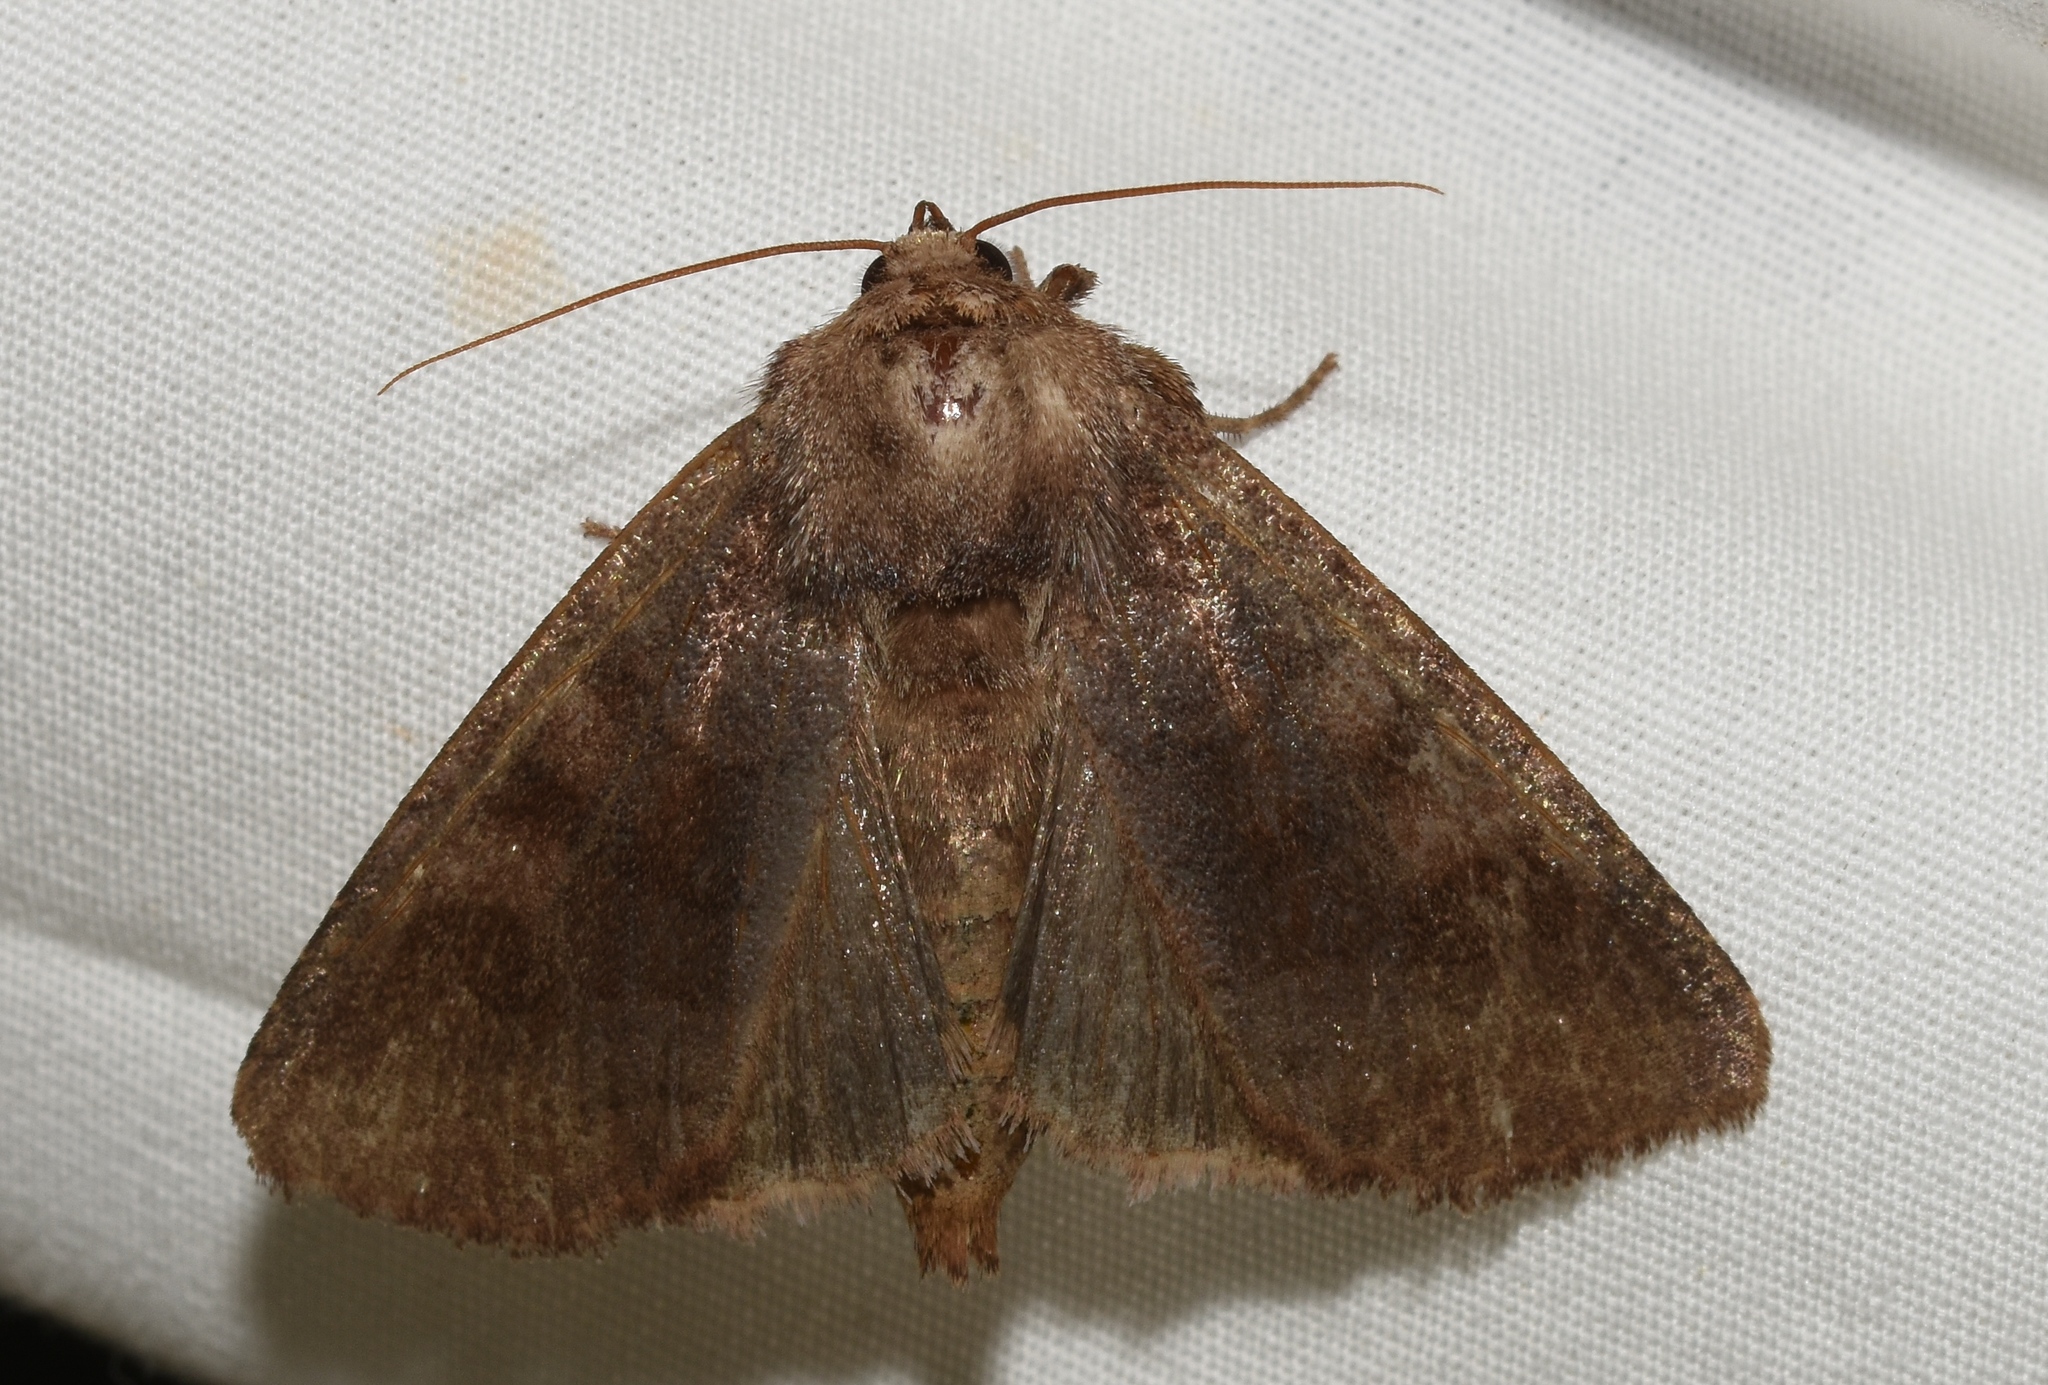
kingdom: Animalia
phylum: Arthropoda
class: Insecta
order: Lepidoptera
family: Noctuidae
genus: Nephelodes
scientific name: Nephelodes minians
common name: Bronzed cutworm
